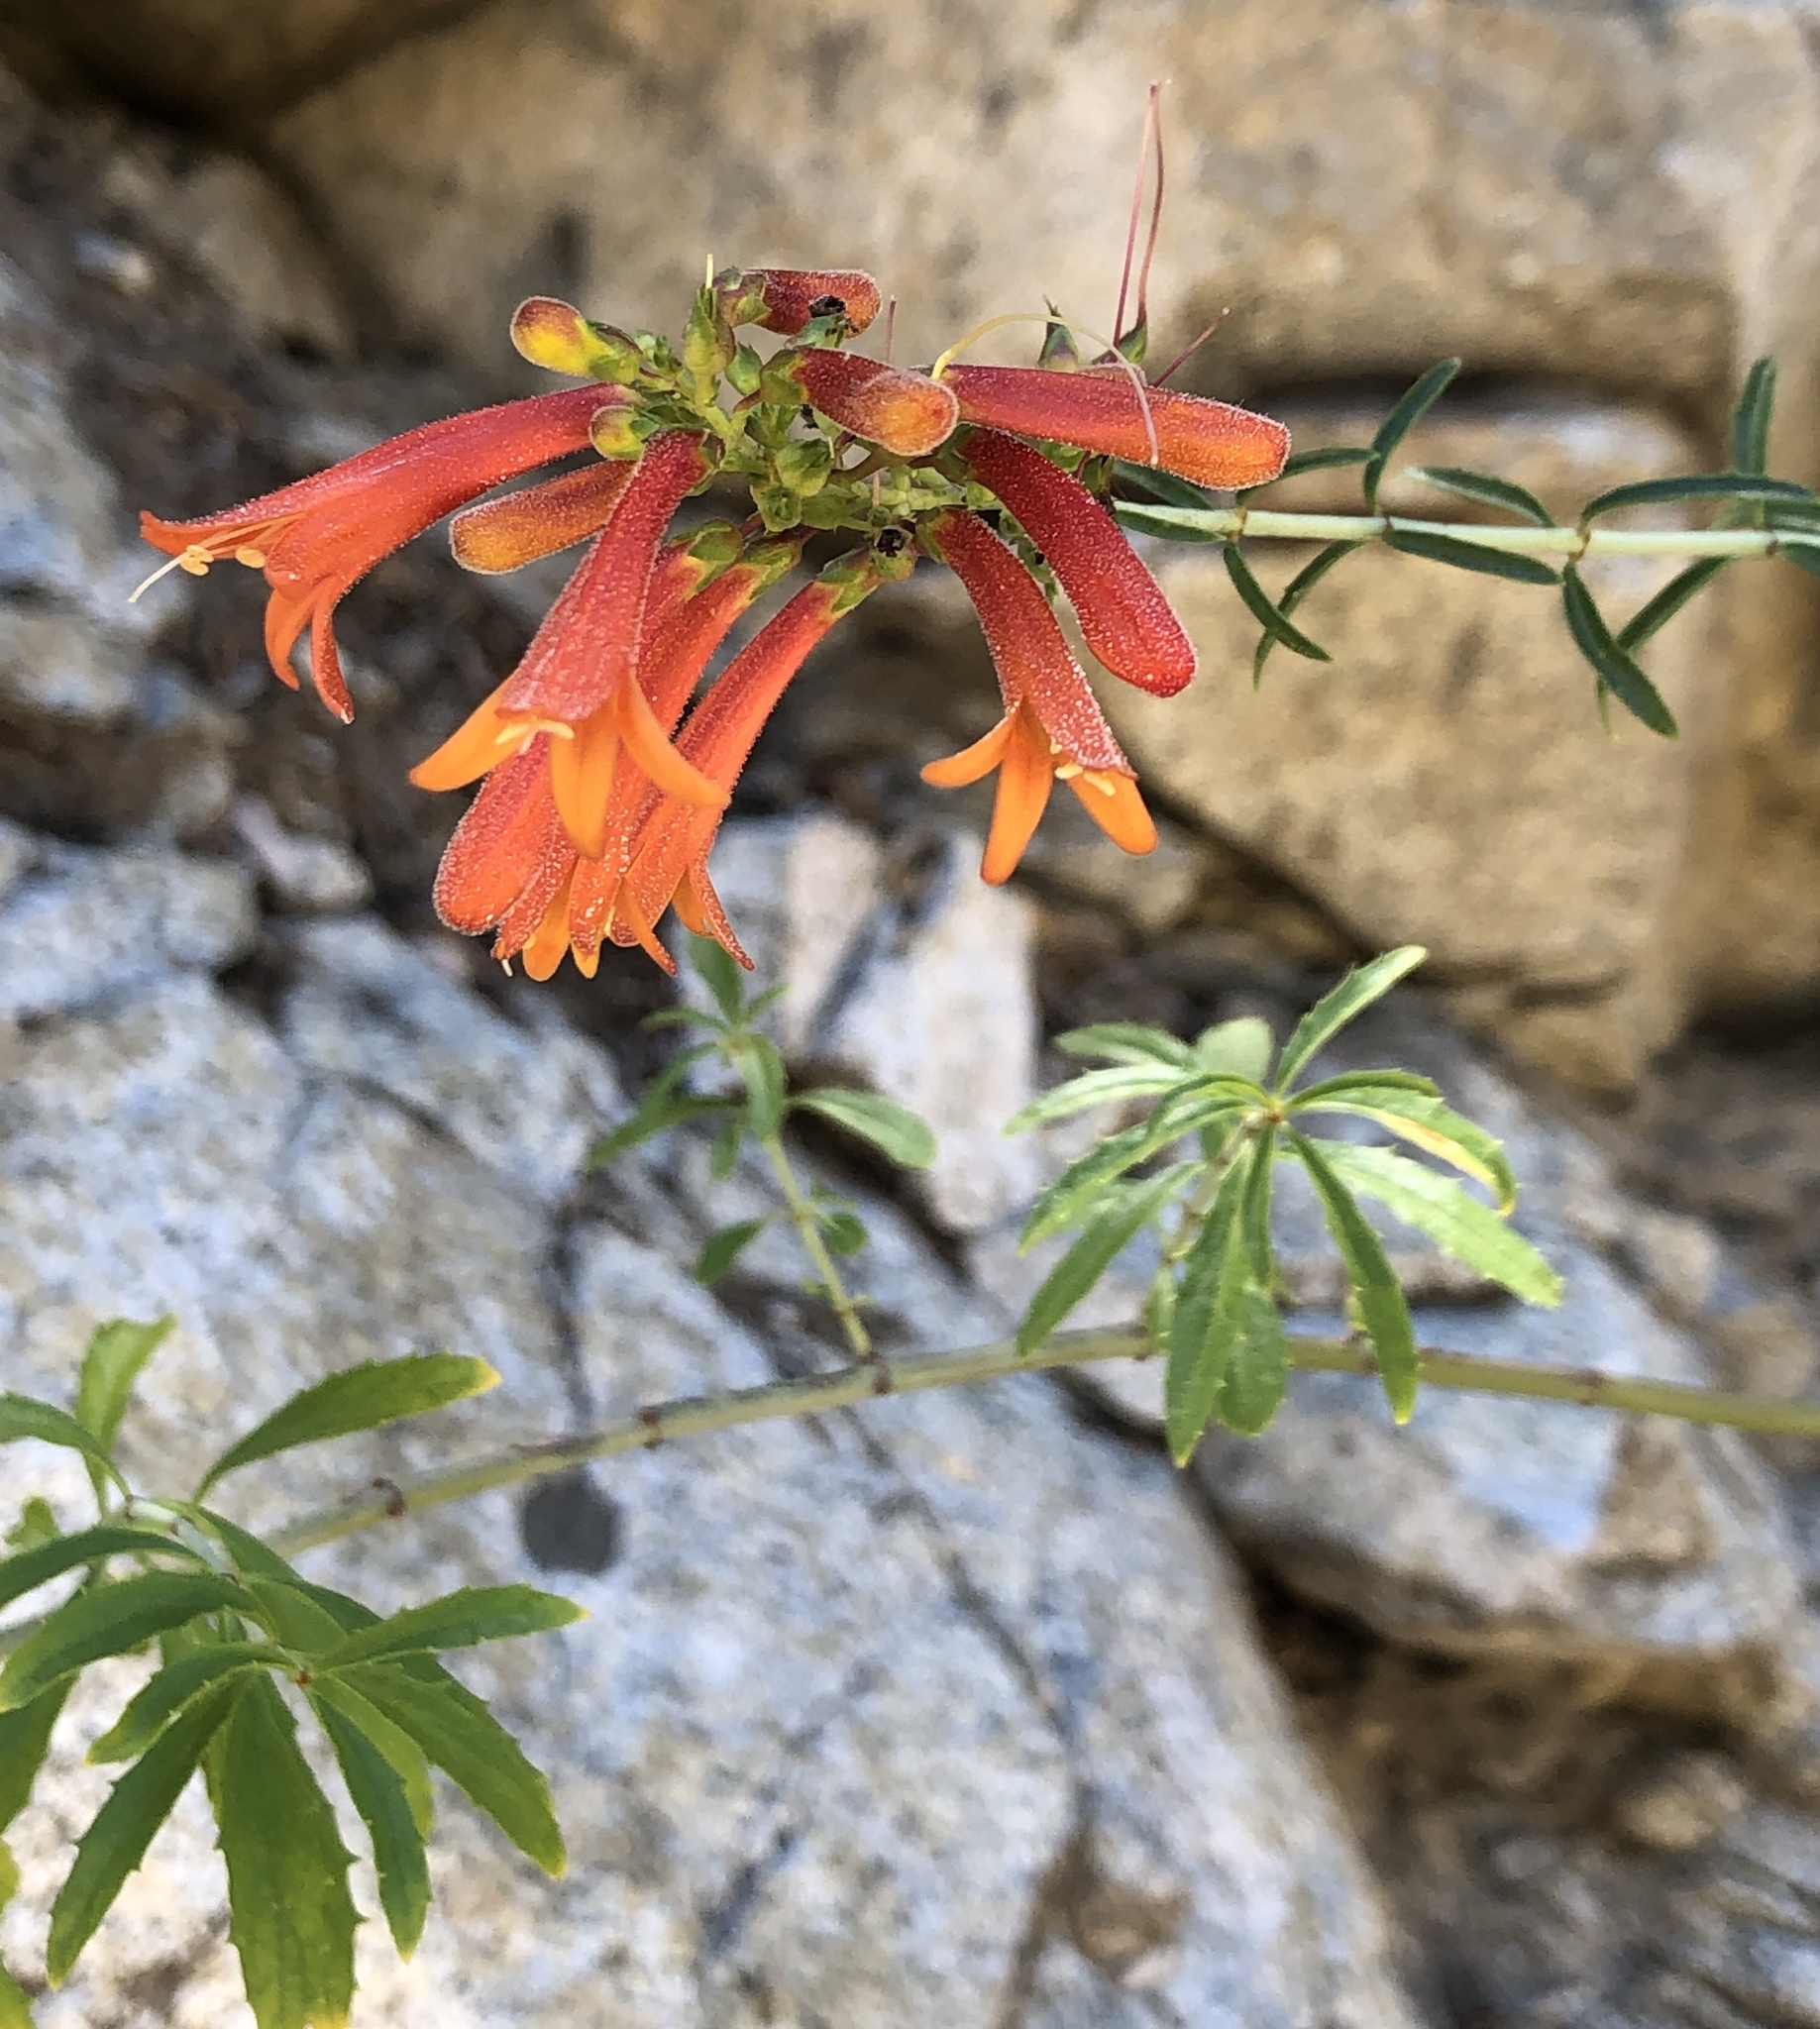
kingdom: Plantae
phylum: Tracheophyta
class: Magnoliopsida
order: Lamiales
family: Plantaginaceae
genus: Keckiella
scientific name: Keckiella ternata
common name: Scarlet keckiella
